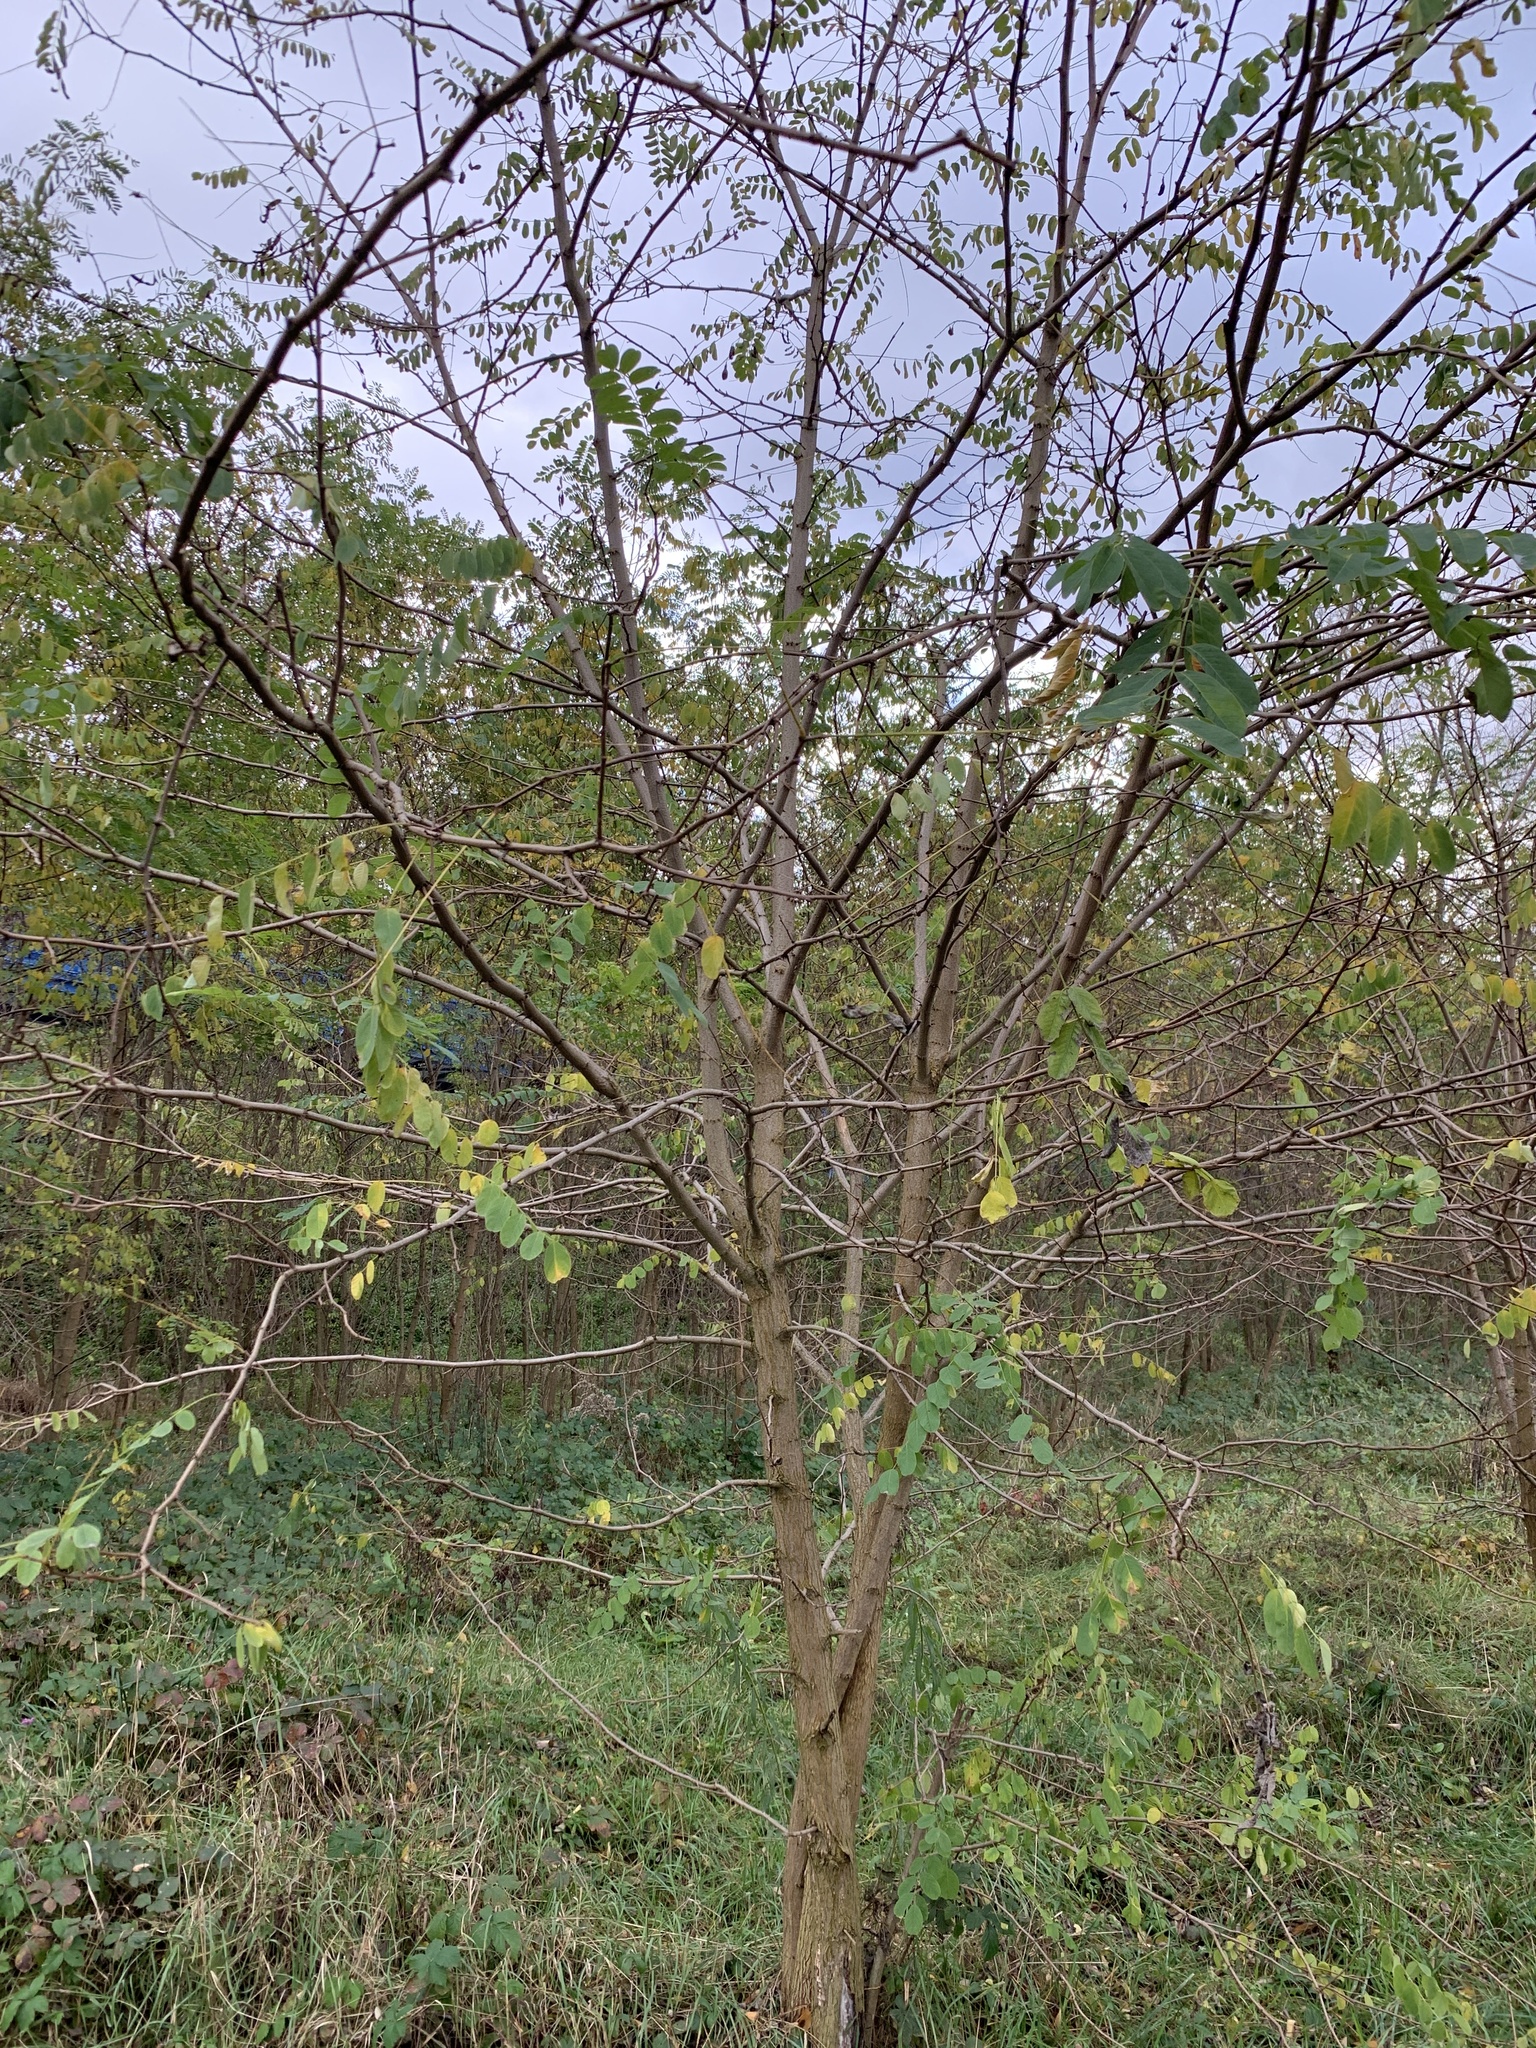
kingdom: Plantae
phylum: Tracheophyta
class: Magnoliopsida
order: Fabales
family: Fabaceae
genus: Robinia
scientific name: Robinia pseudoacacia
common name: Black locust
